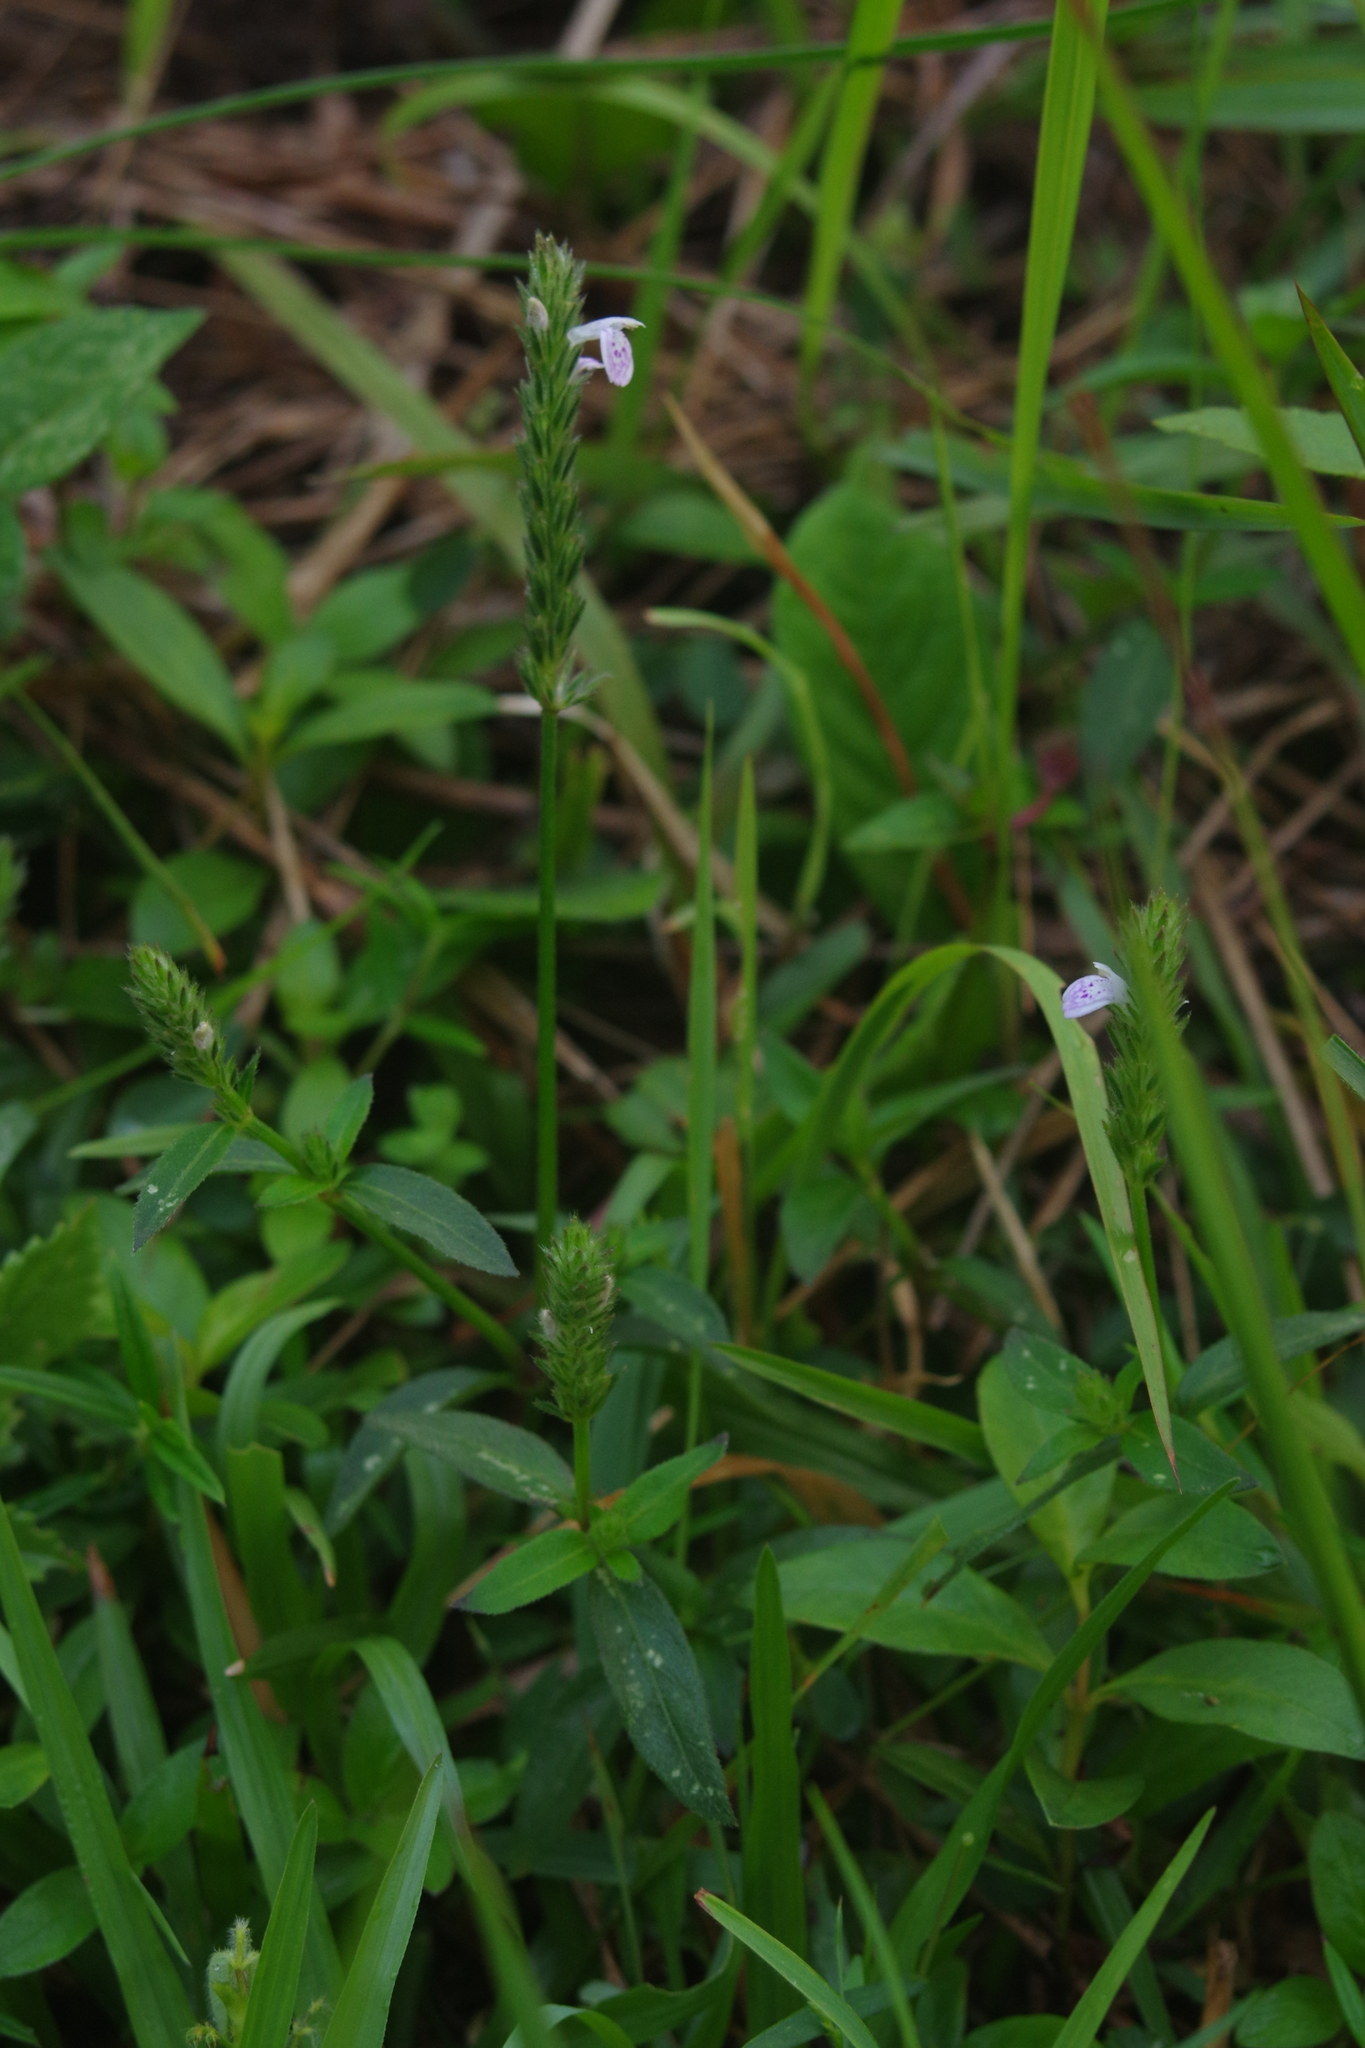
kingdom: Plantae
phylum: Tracheophyta
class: Magnoliopsida
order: Lamiales
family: Acanthaceae
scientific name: Acanthaceae
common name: Acanthaceae
